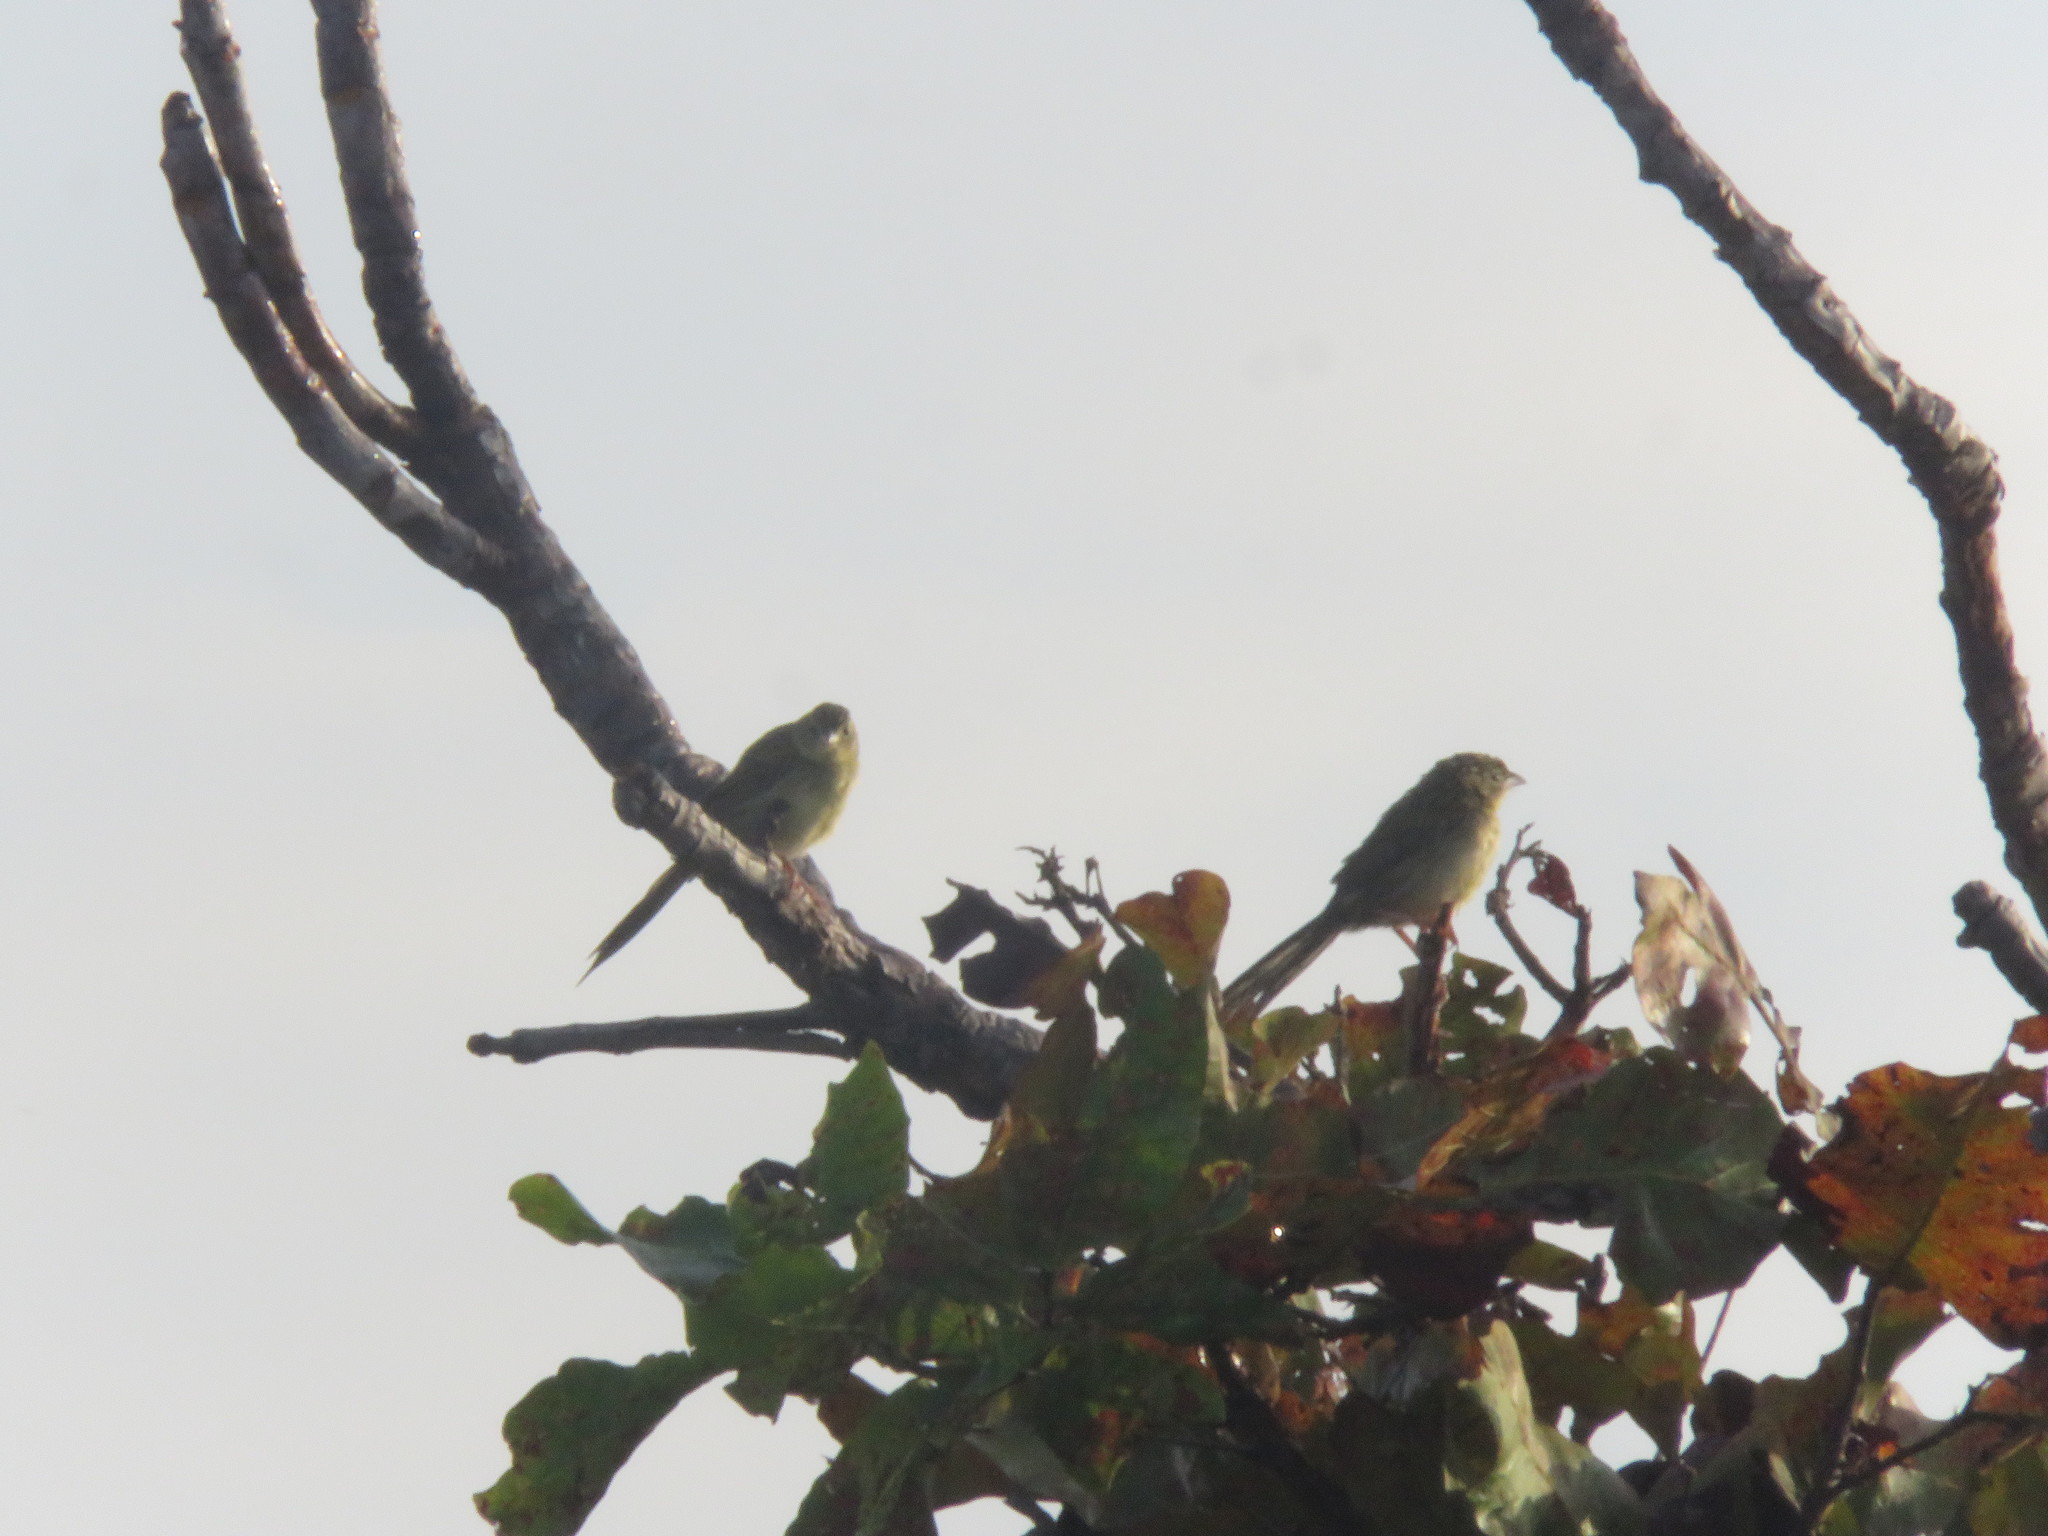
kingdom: Animalia
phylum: Chordata
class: Aves
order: Passeriformes
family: Thraupidae
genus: Emberizoides
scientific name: Emberizoides herbicola
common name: Wedge-tailed grass-finch
